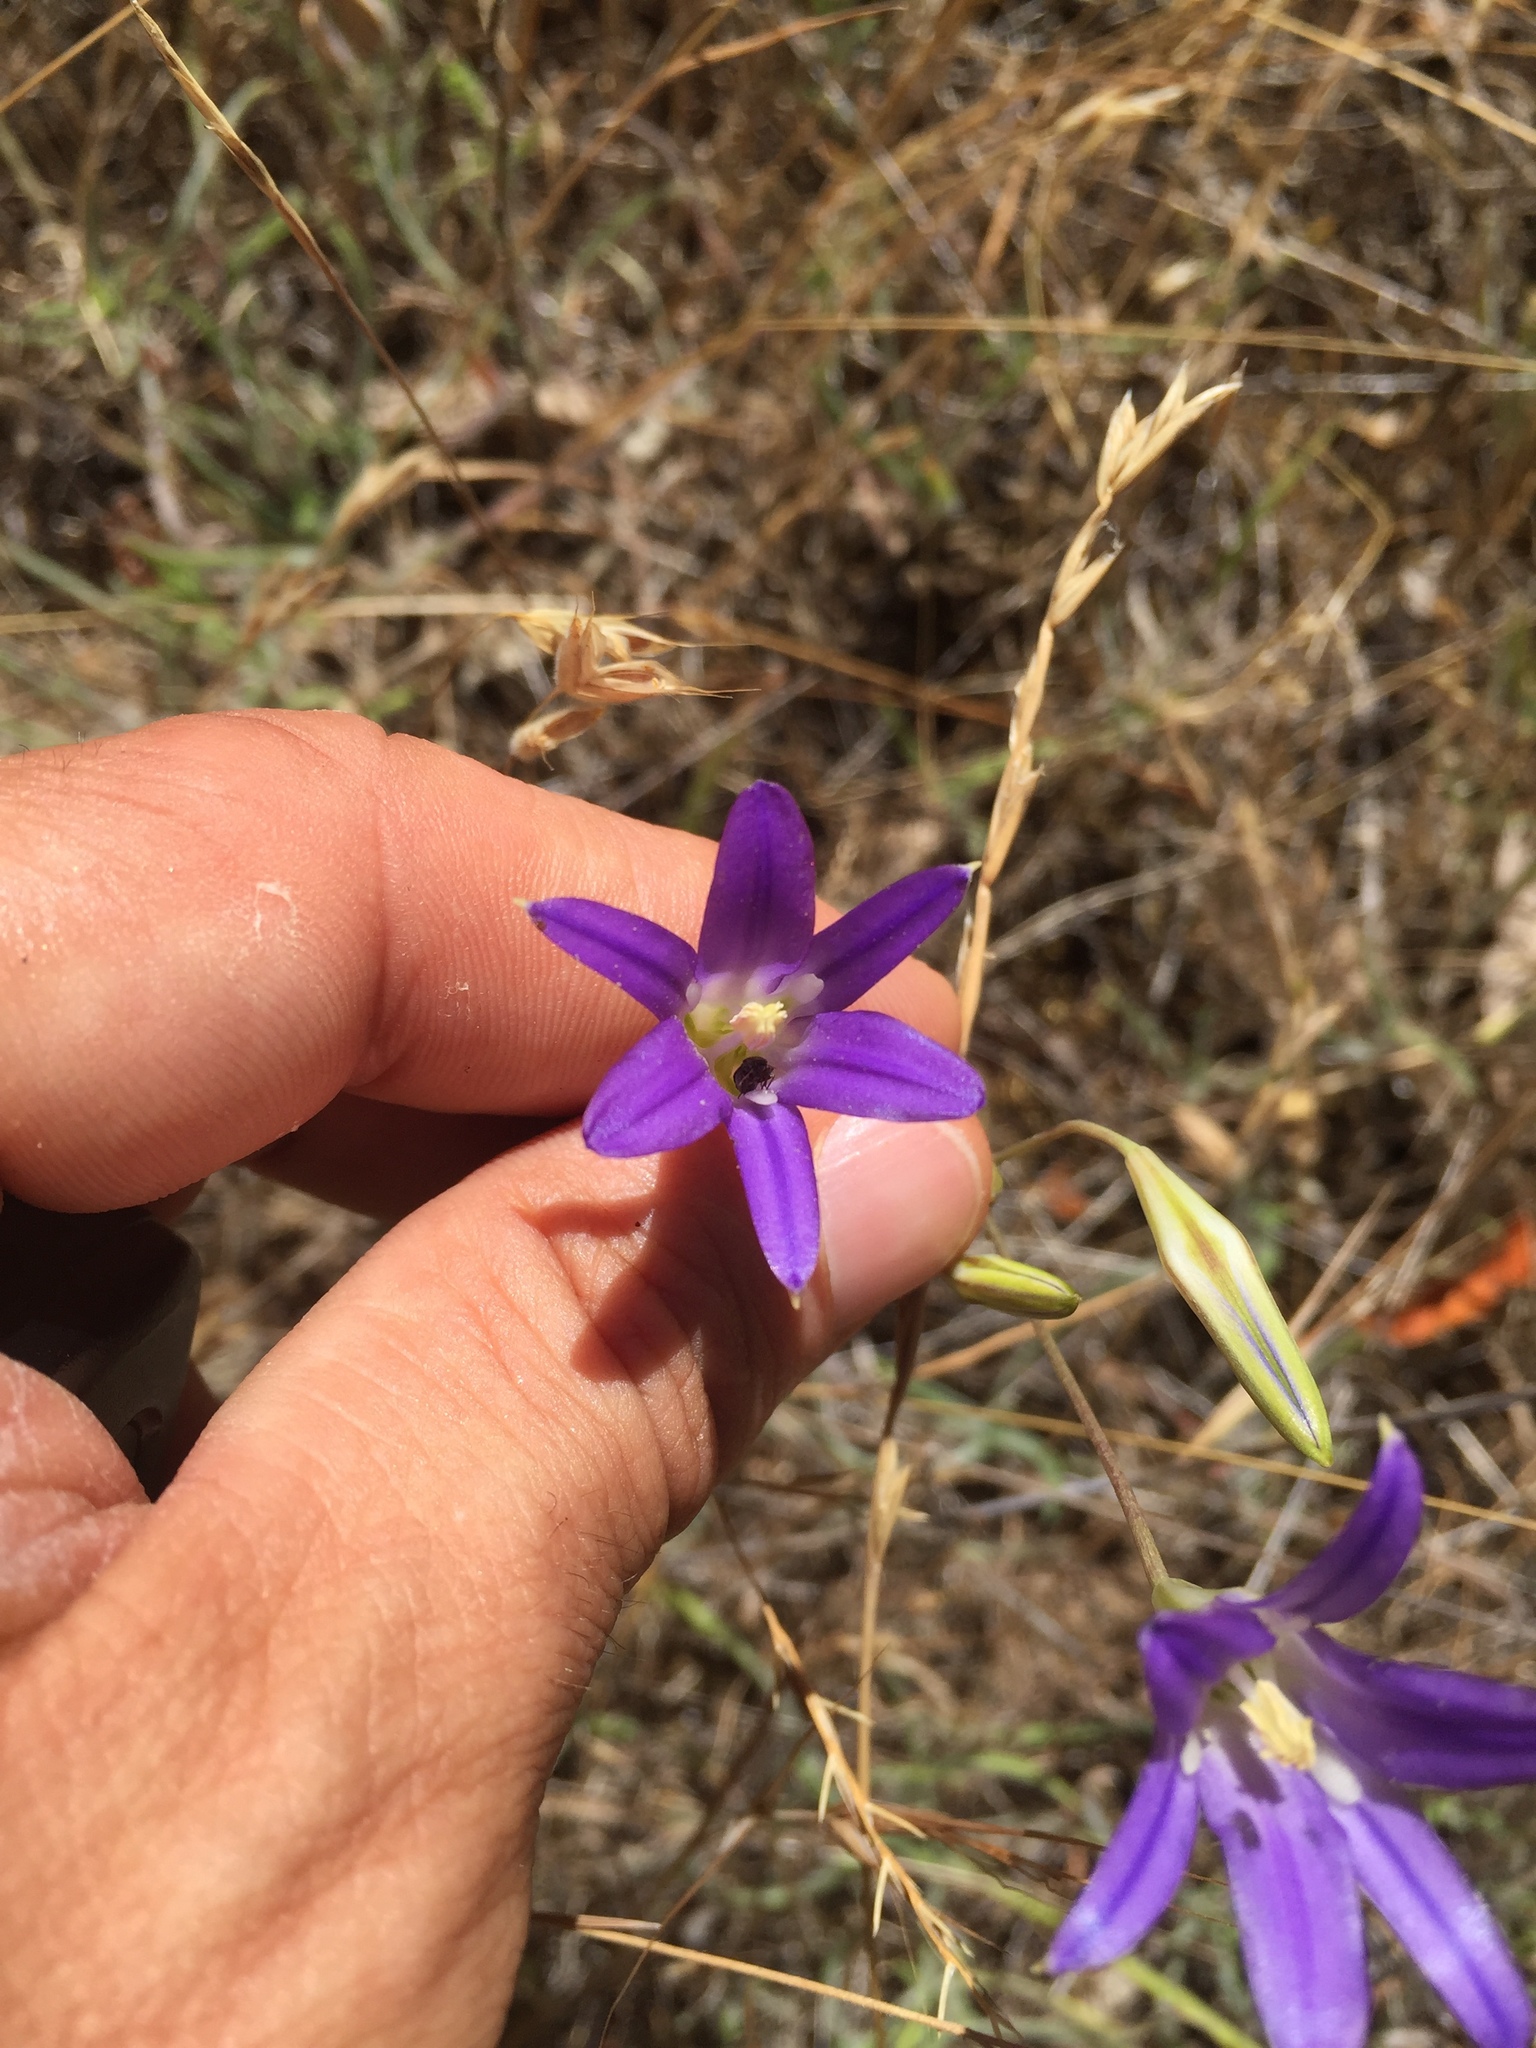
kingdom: Plantae
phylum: Tracheophyta
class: Liliopsida
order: Asparagales
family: Asparagaceae
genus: Brodiaea
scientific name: Brodiaea elegans
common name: Elegant cluster-lily
